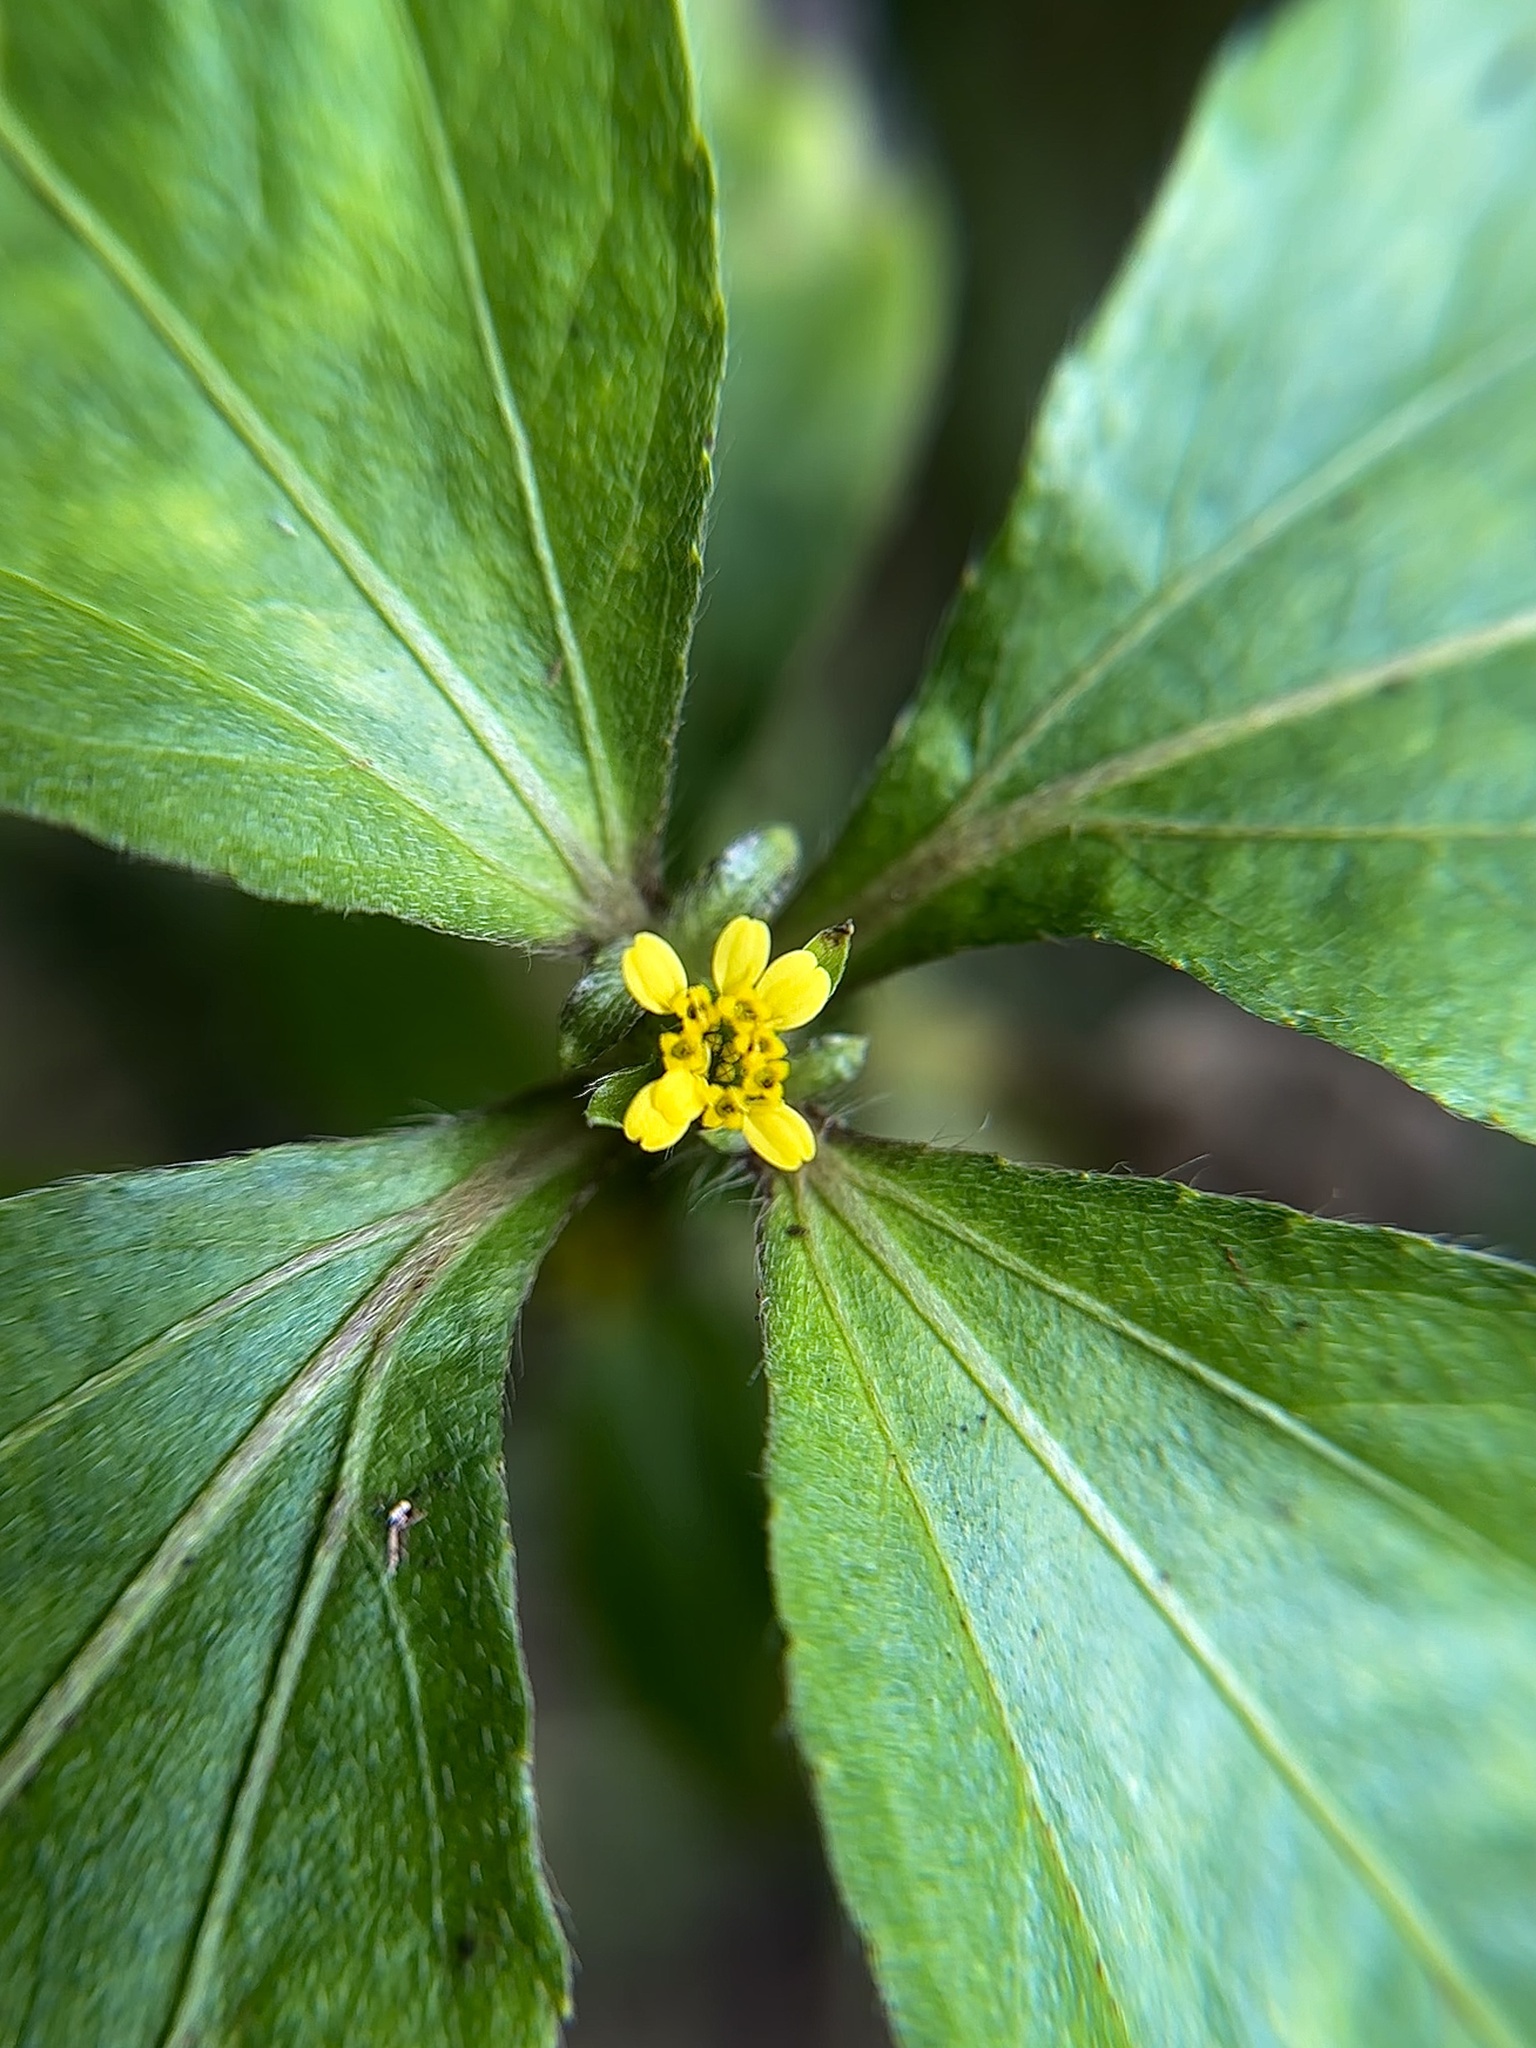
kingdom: Plantae
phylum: Tracheophyta
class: Magnoliopsida
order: Asterales
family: Asteraceae
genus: Synedrella
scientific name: Synedrella nodiflora
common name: Nodeweed
